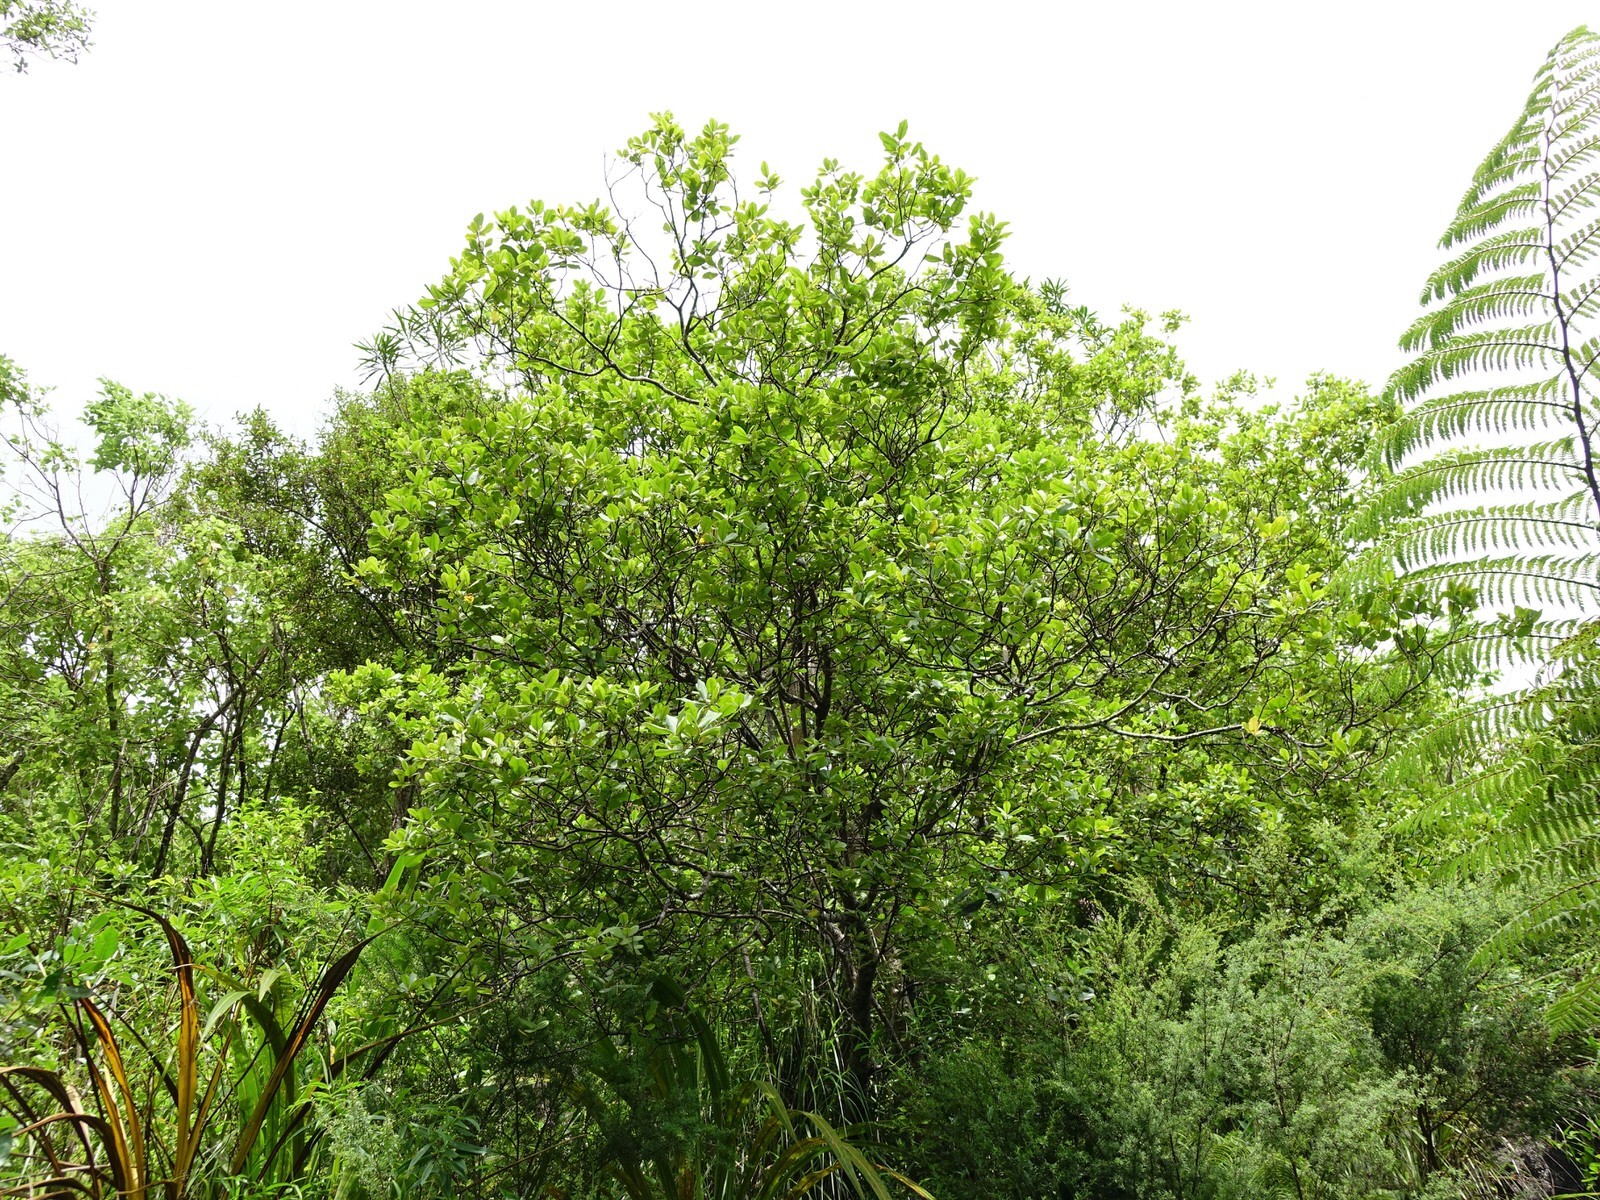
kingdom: Plantae
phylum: Tracheophyta
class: Magnoliopsida
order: Apiales
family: Pittosporaceae
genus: Pittosporum
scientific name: Pittosporum ellipticum
